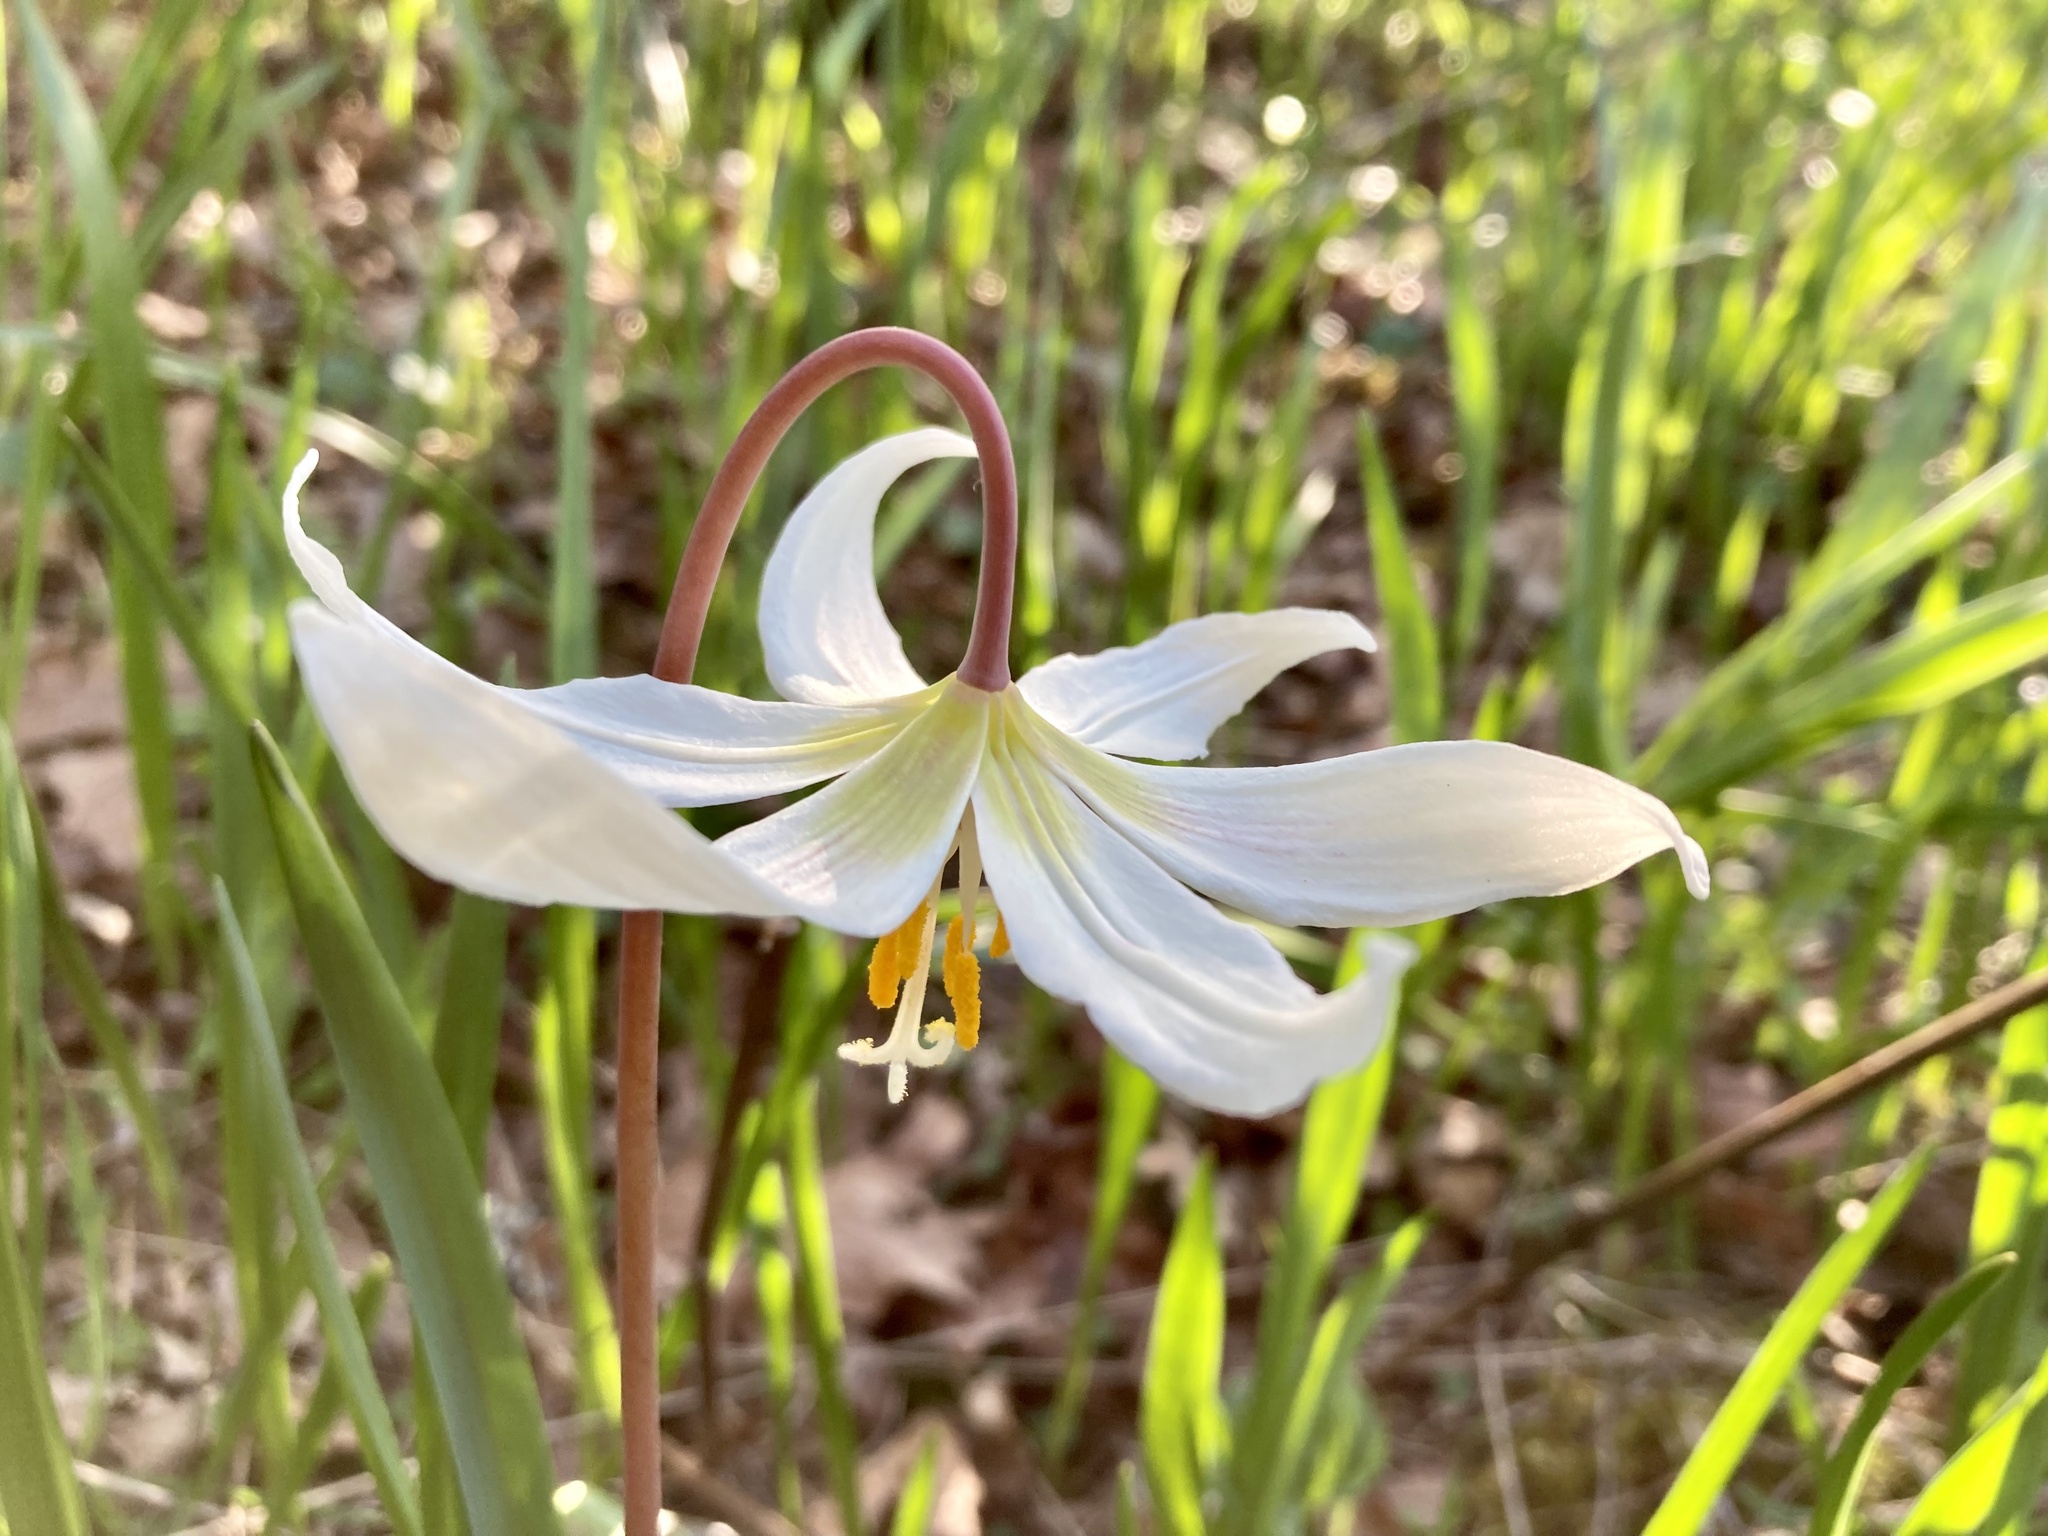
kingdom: Plantae
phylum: Tracheophyta
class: Liliopsida
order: Liliales
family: Liliaceae
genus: Erythronium
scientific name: Erythronium oregonum
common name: Giant adder's-tongue
